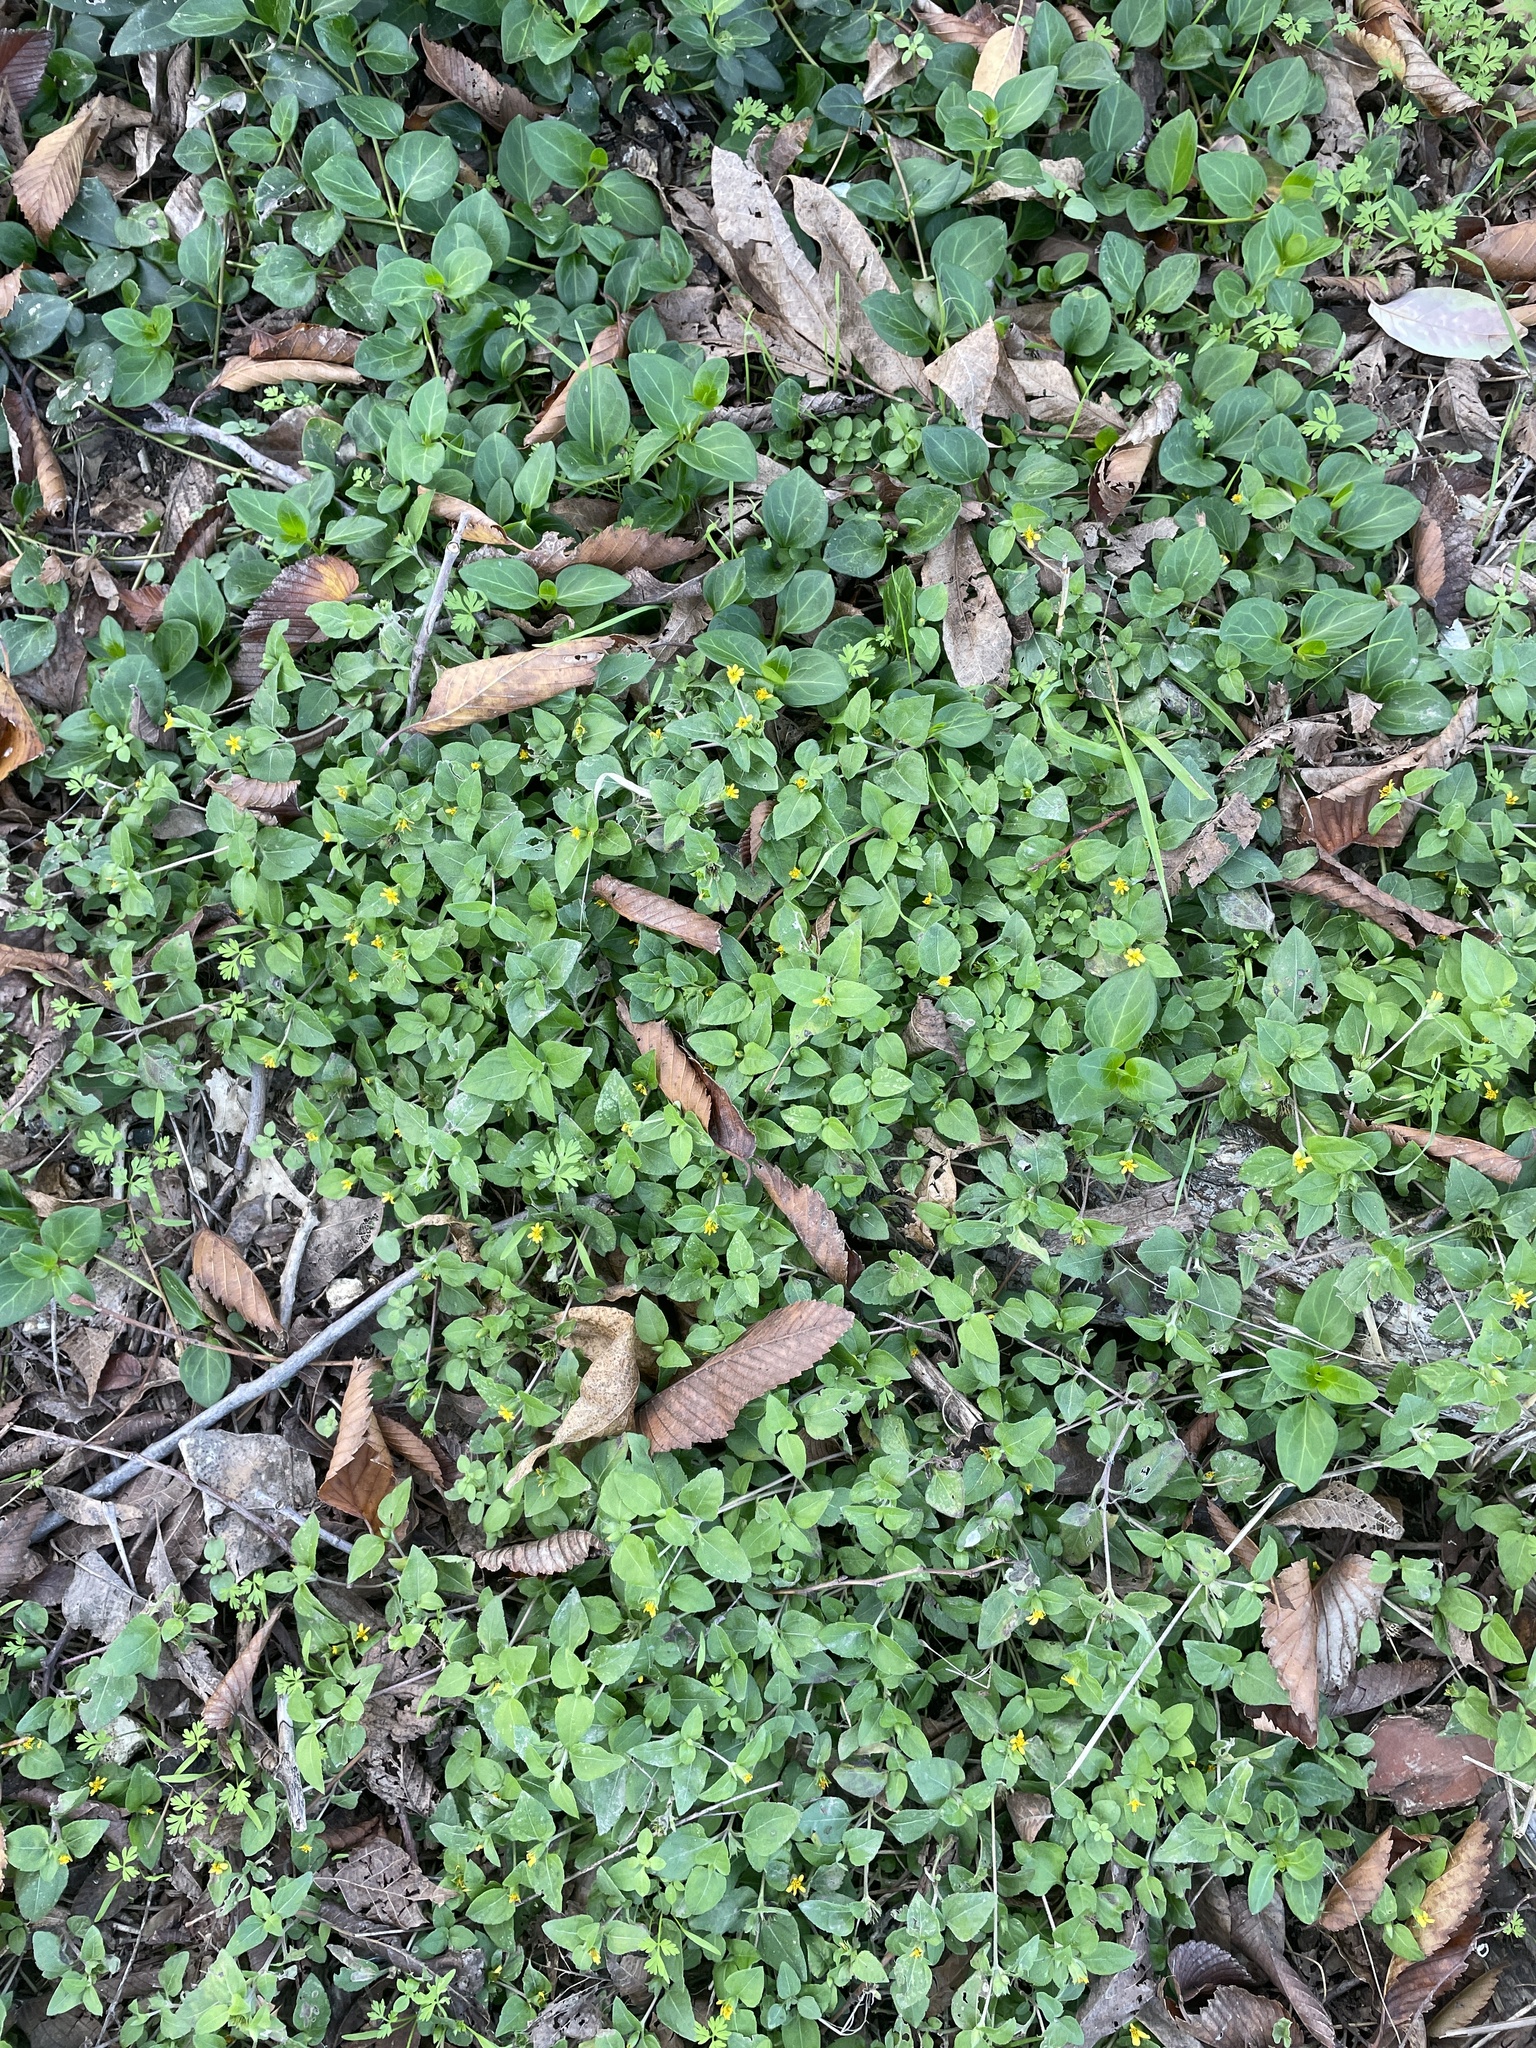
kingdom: Plantae
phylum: Tracheophyta
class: Magnoliopsida
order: Asterales
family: Asteraceae
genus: Calyptocarpus
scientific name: Calyptocarpus vialis
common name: Straggler daisy
